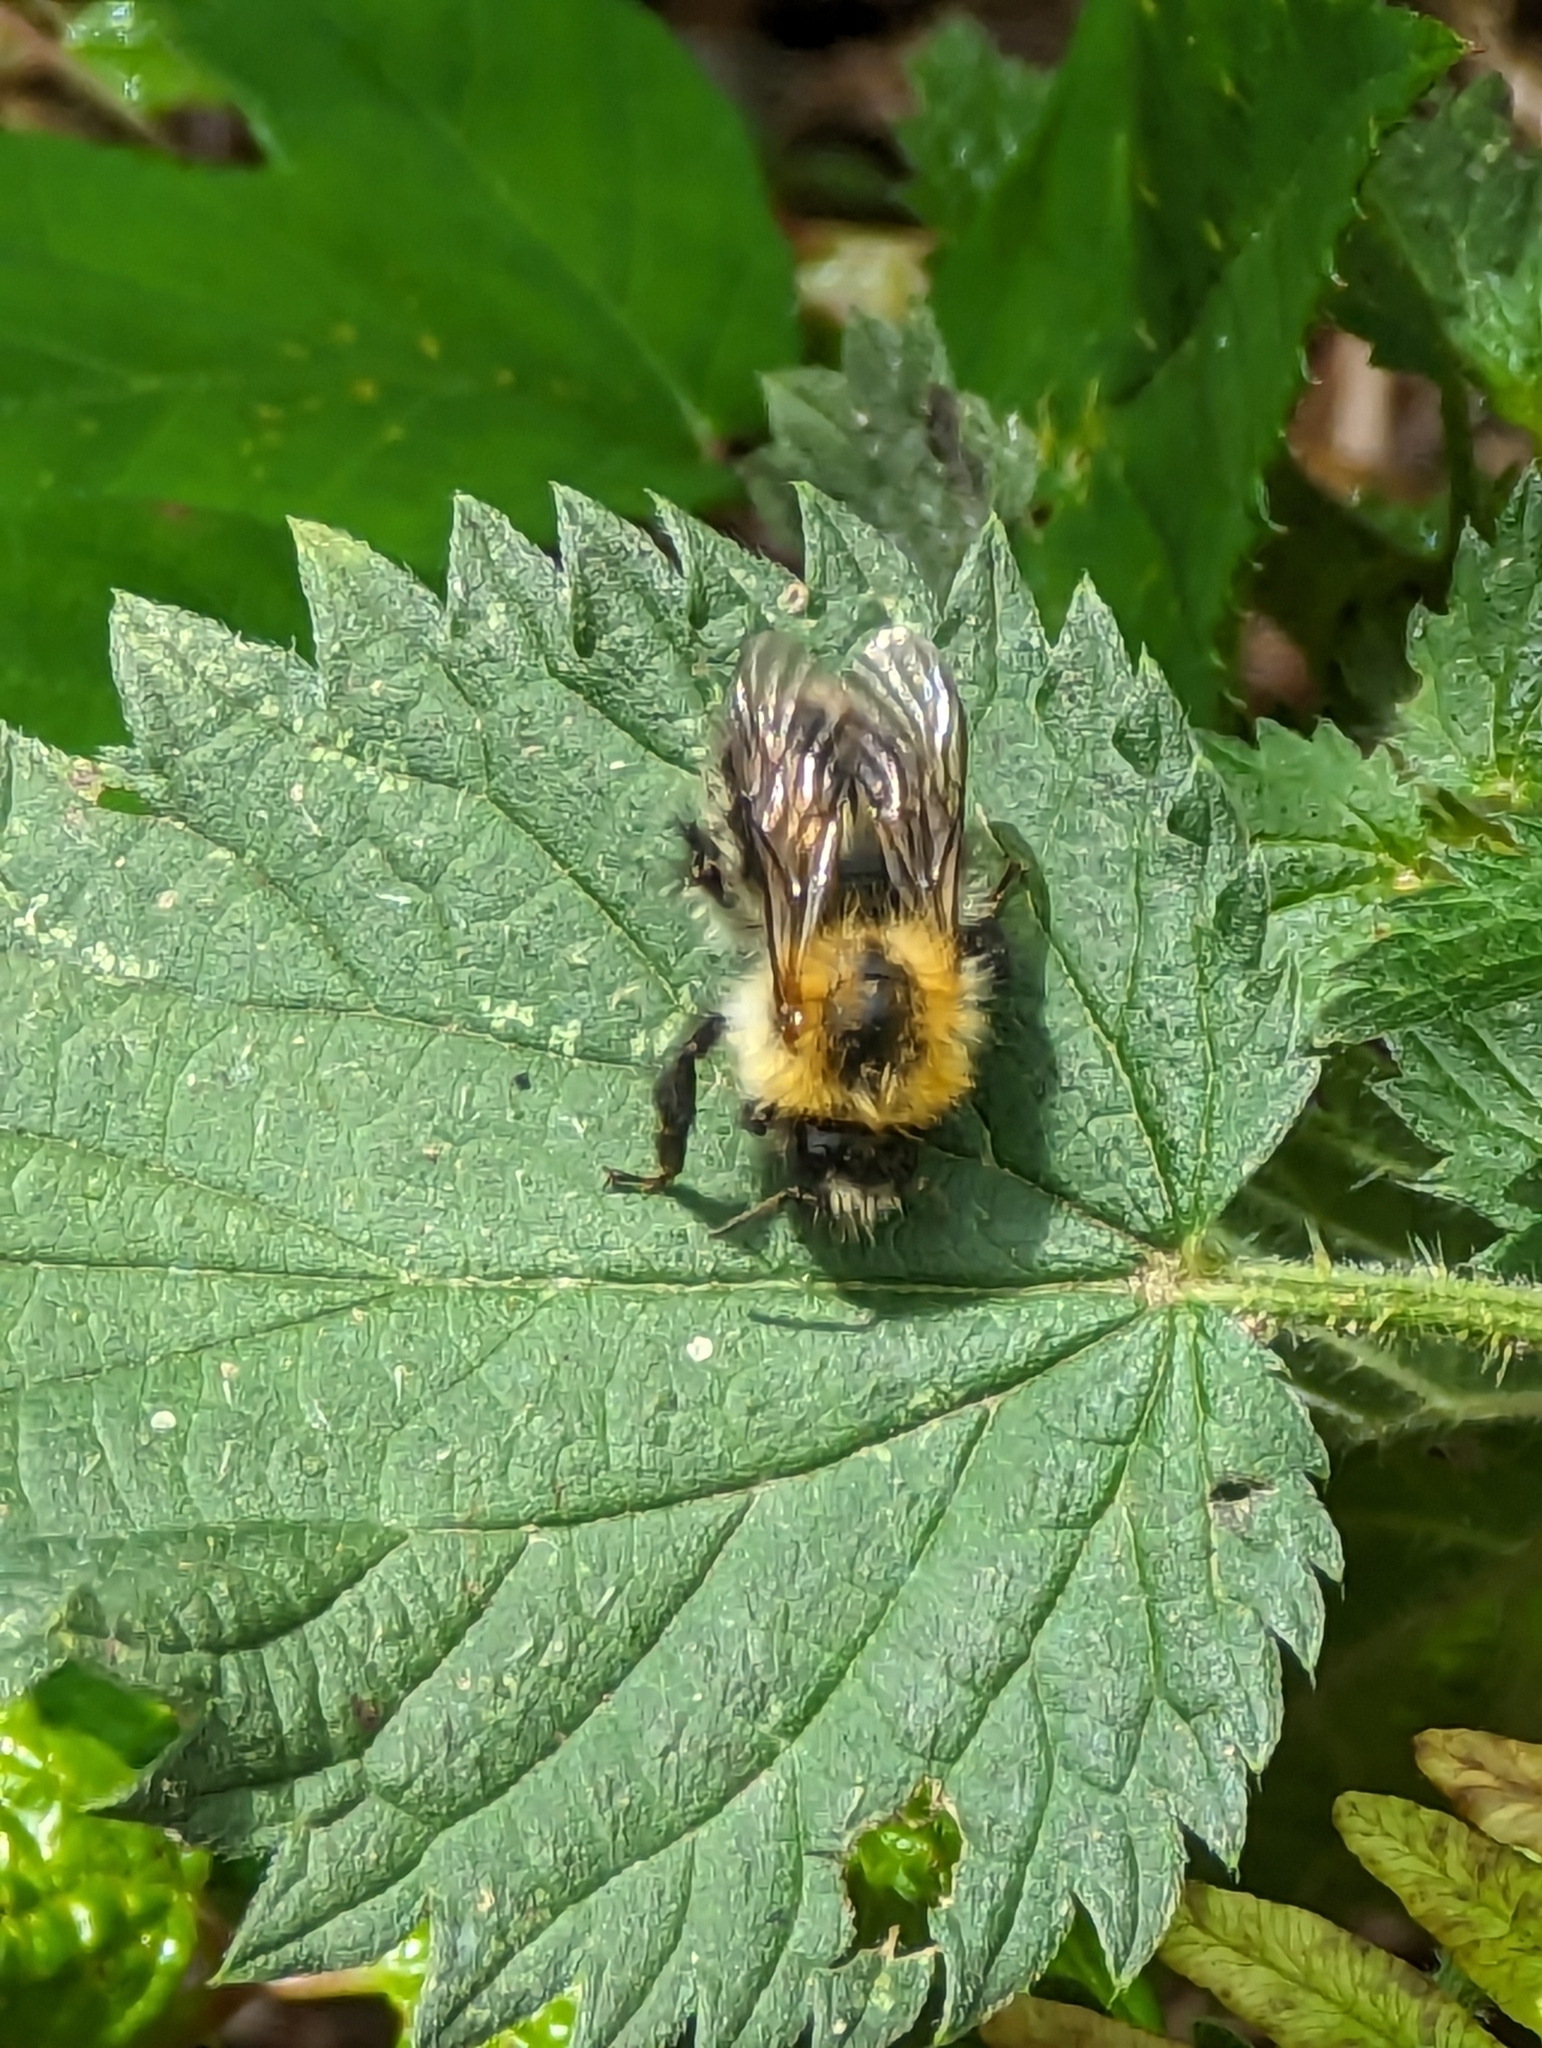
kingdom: Animalia
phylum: Arthropoda
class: Insecta
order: Hymenoptera
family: Apidae
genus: Bombus
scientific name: Bombus pascuorum
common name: Common carder bee
